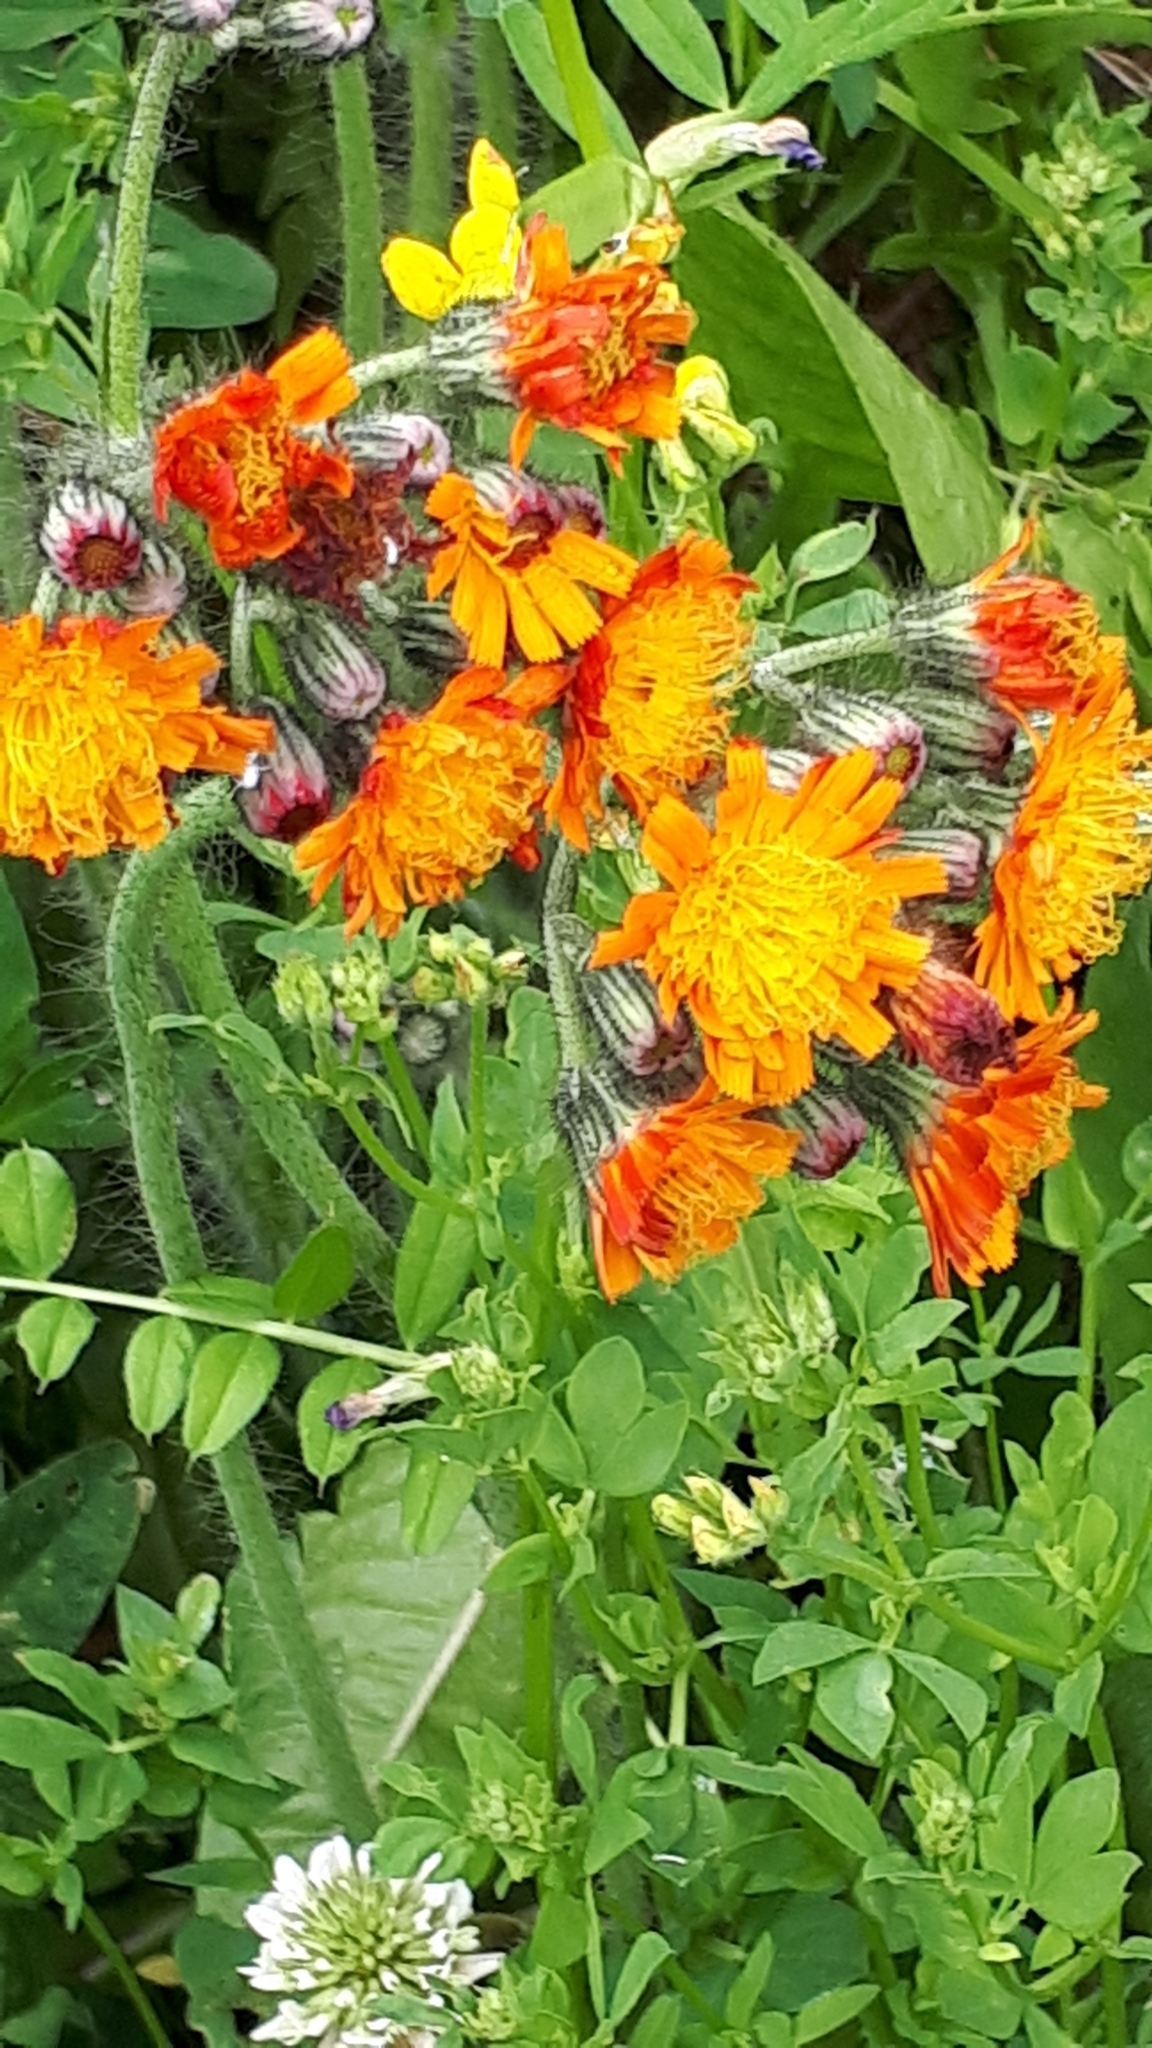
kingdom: Plantae
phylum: Tracheophyta
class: Magnoliopsida
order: Asterales
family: Asteraceae
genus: Pilosella
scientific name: Pilosella aurantiaca
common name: Fox-and-cubs
